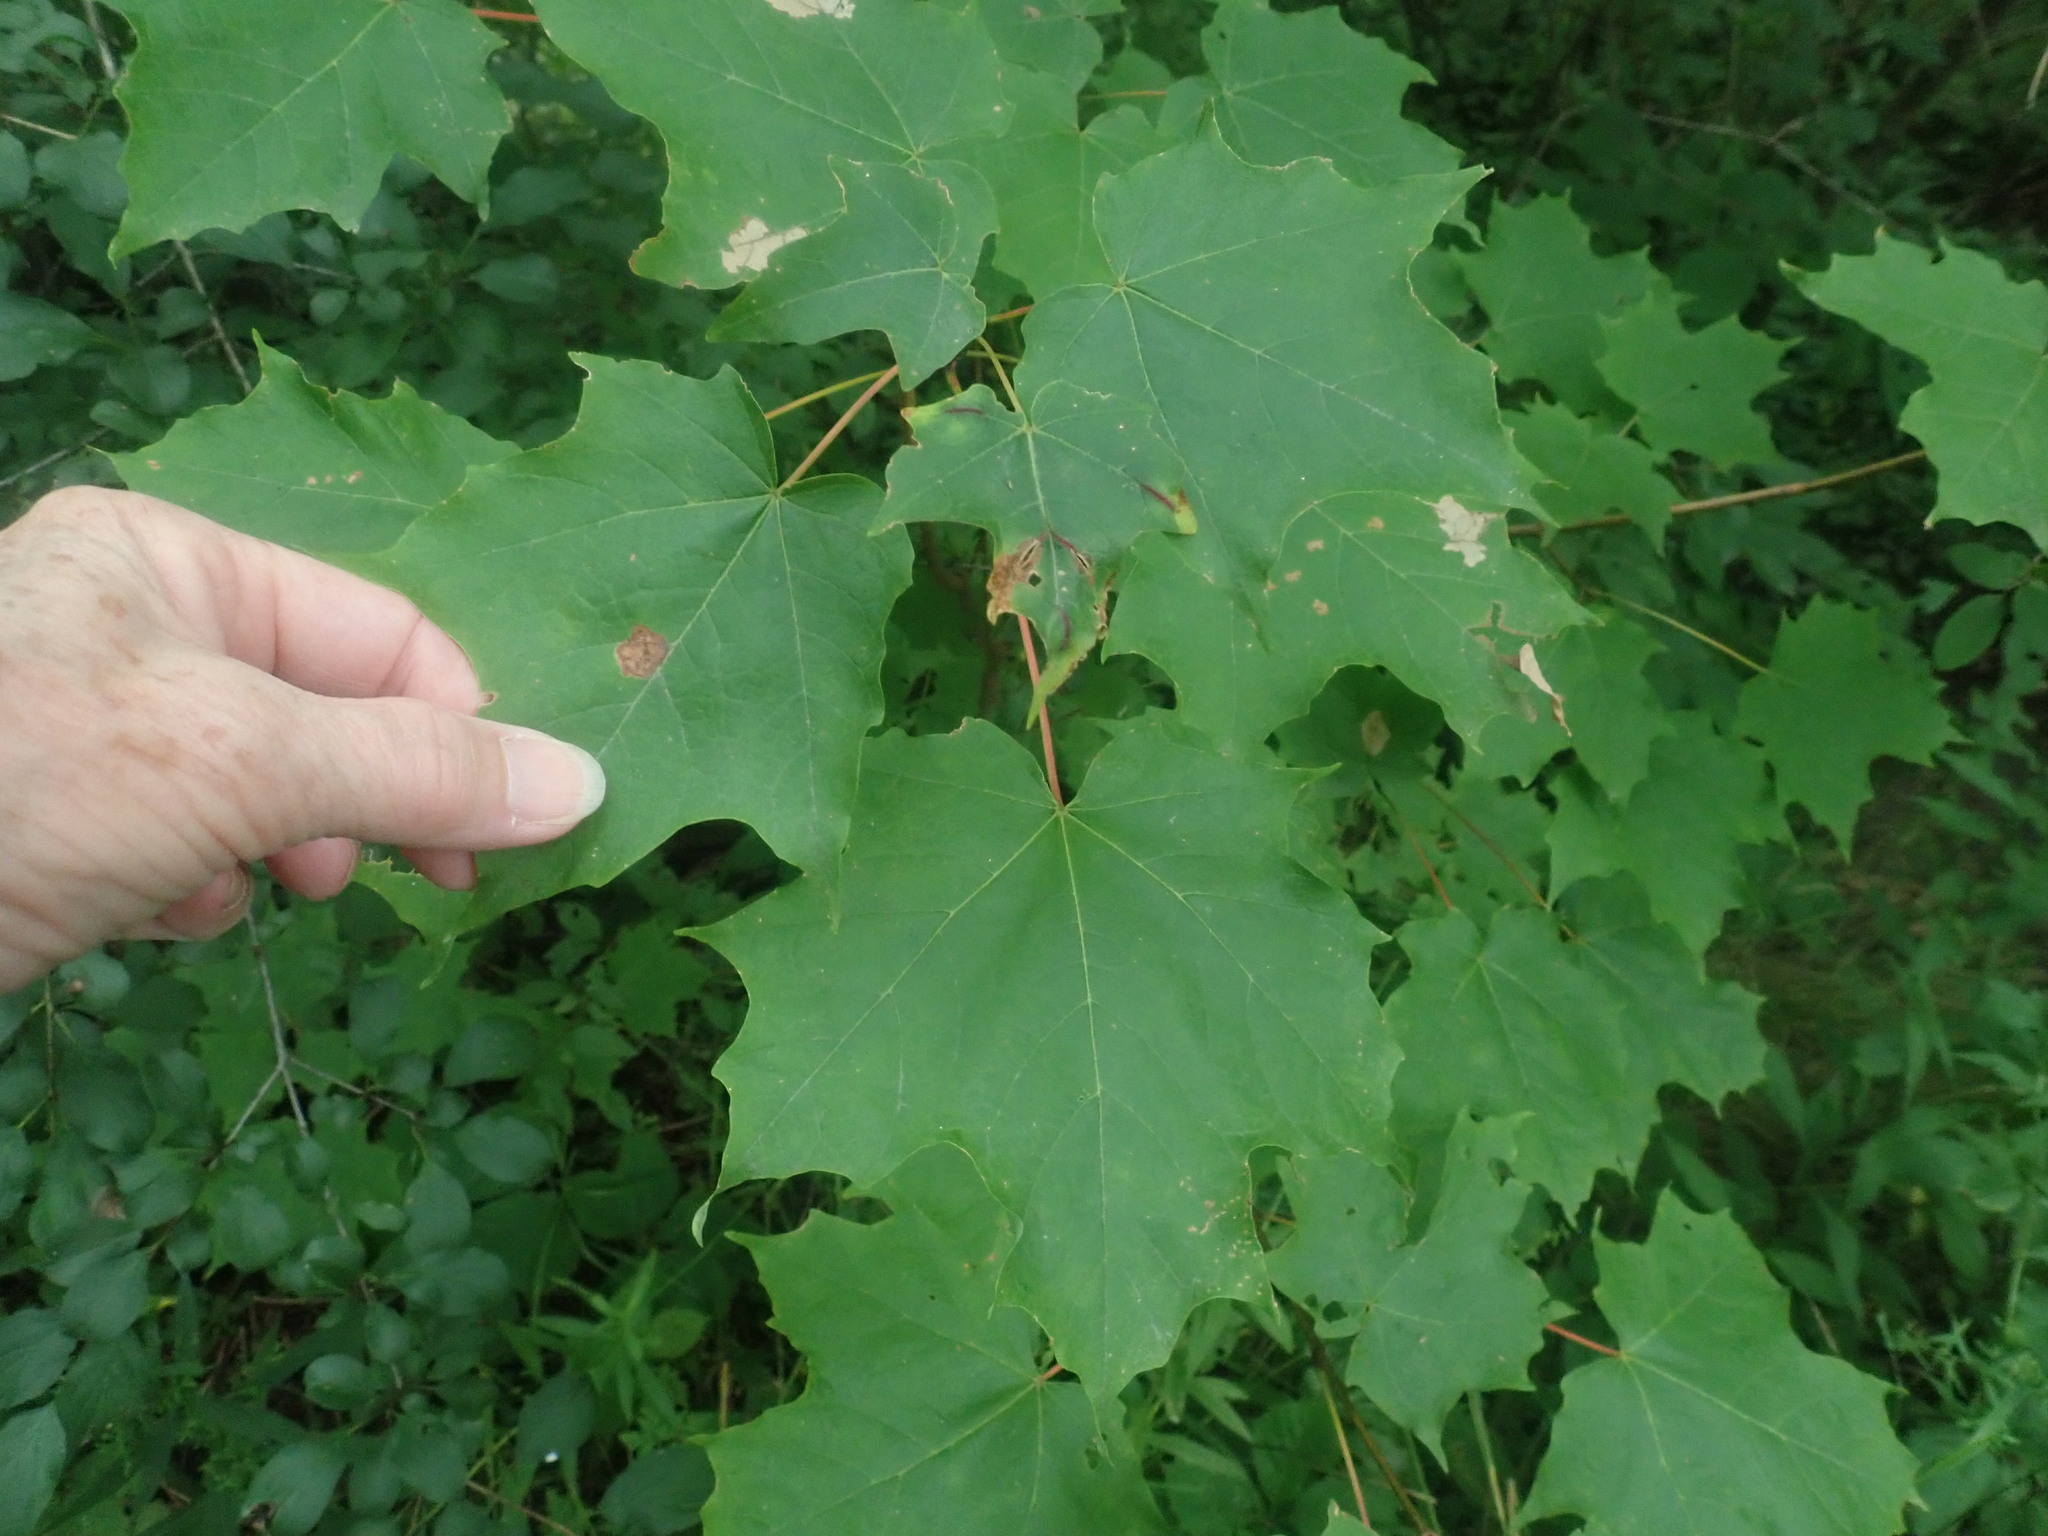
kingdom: Plantae
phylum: Tracheophyta
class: Magnoliopsida
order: Sapindales
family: Sapindaceae
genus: Acer
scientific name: Acer saccharum
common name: Sugar maple
